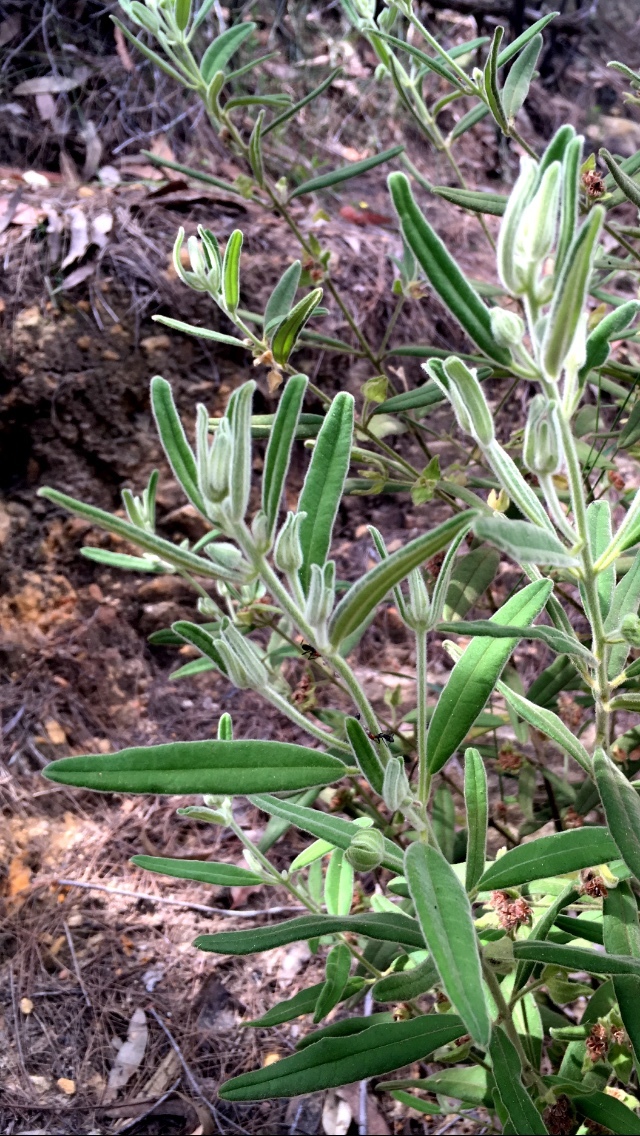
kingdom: Plantae
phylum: Tracheophyta
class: Magnoliopsida
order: Sapindales
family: Rutaceae
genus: Zieria
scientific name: Zieria involucrata
